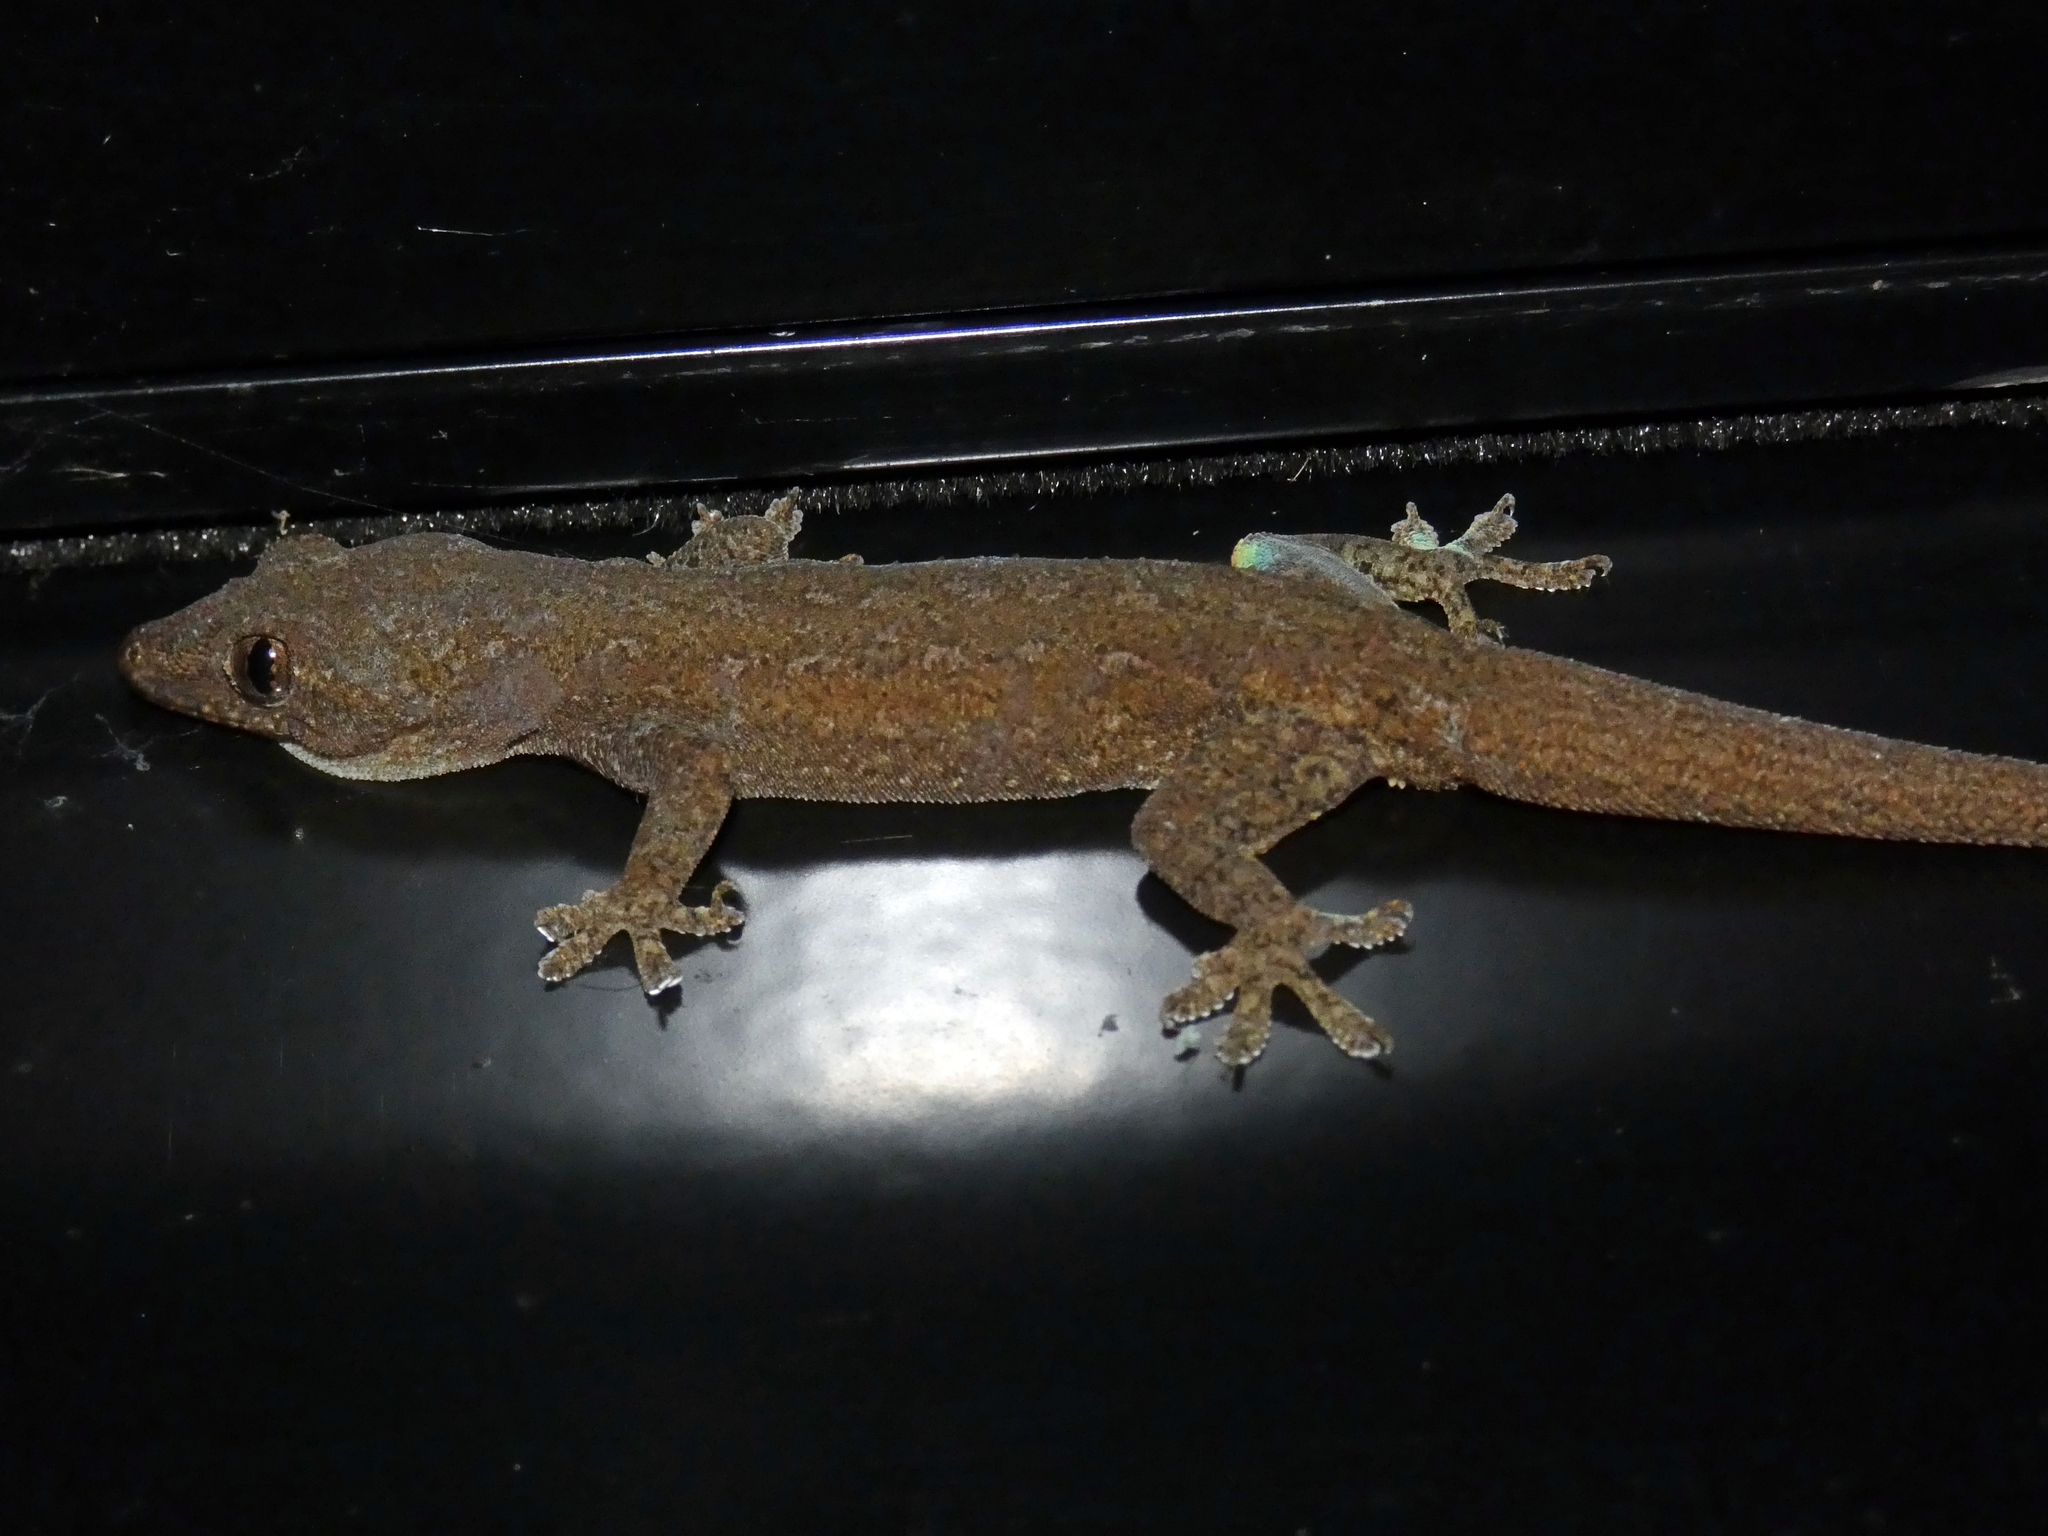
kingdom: Animalia
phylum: Chordata
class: Squamata
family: Gekkonidae
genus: Hemidactylus
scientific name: Hemidactylus frenatus
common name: Common house gecko
